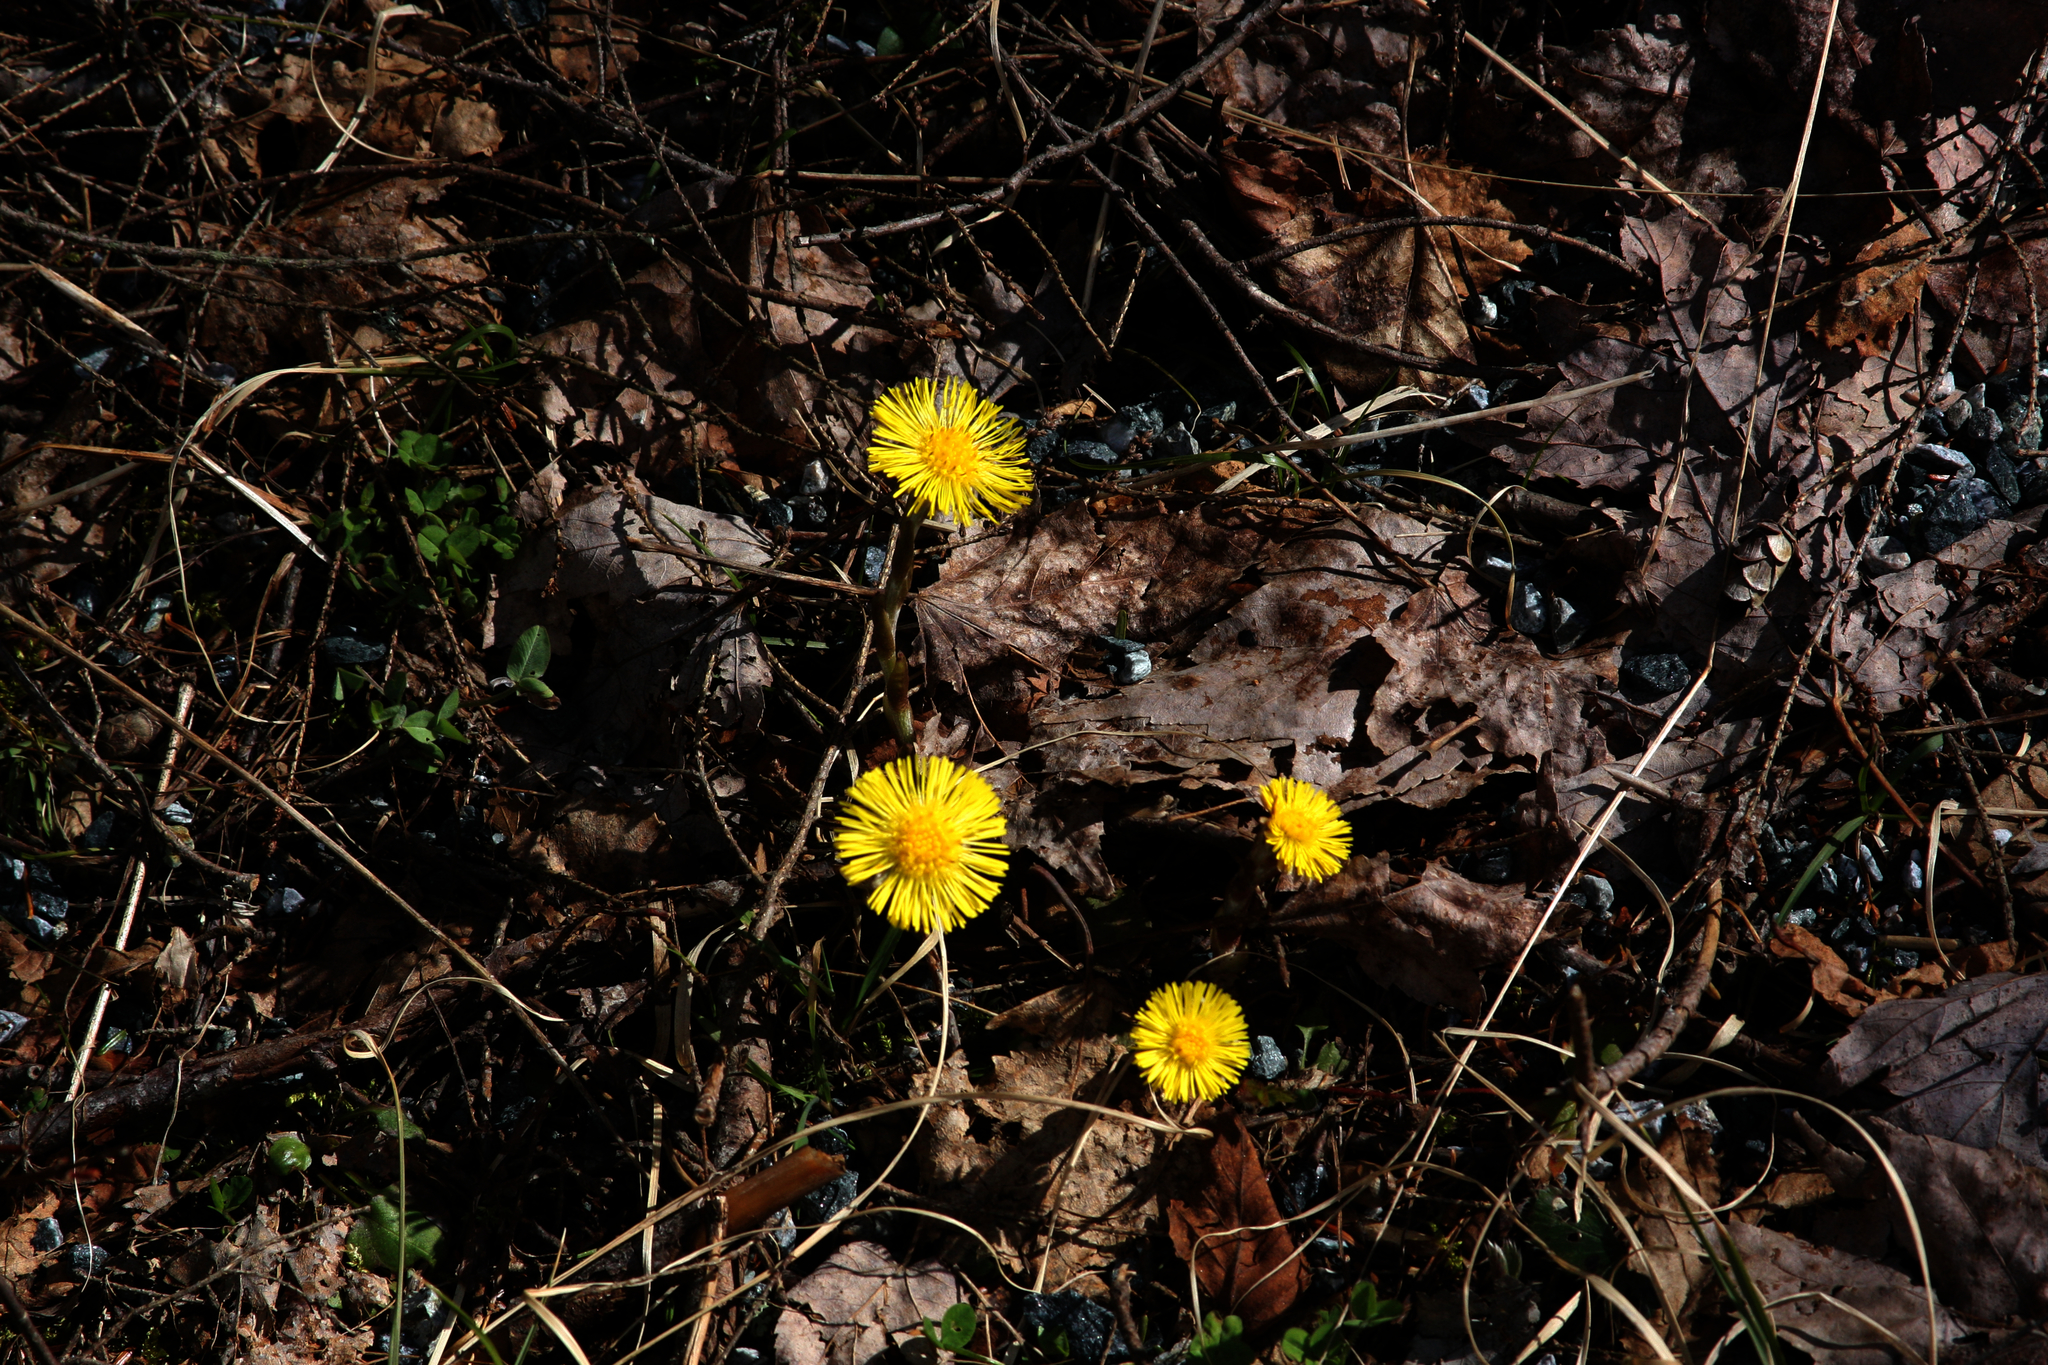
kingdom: Plantae
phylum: Tracheophyta
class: Magnoliopsida
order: Asterales
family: Asteraceae
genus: Tussilago
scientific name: Tussilago farfara
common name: Coltsfoot
